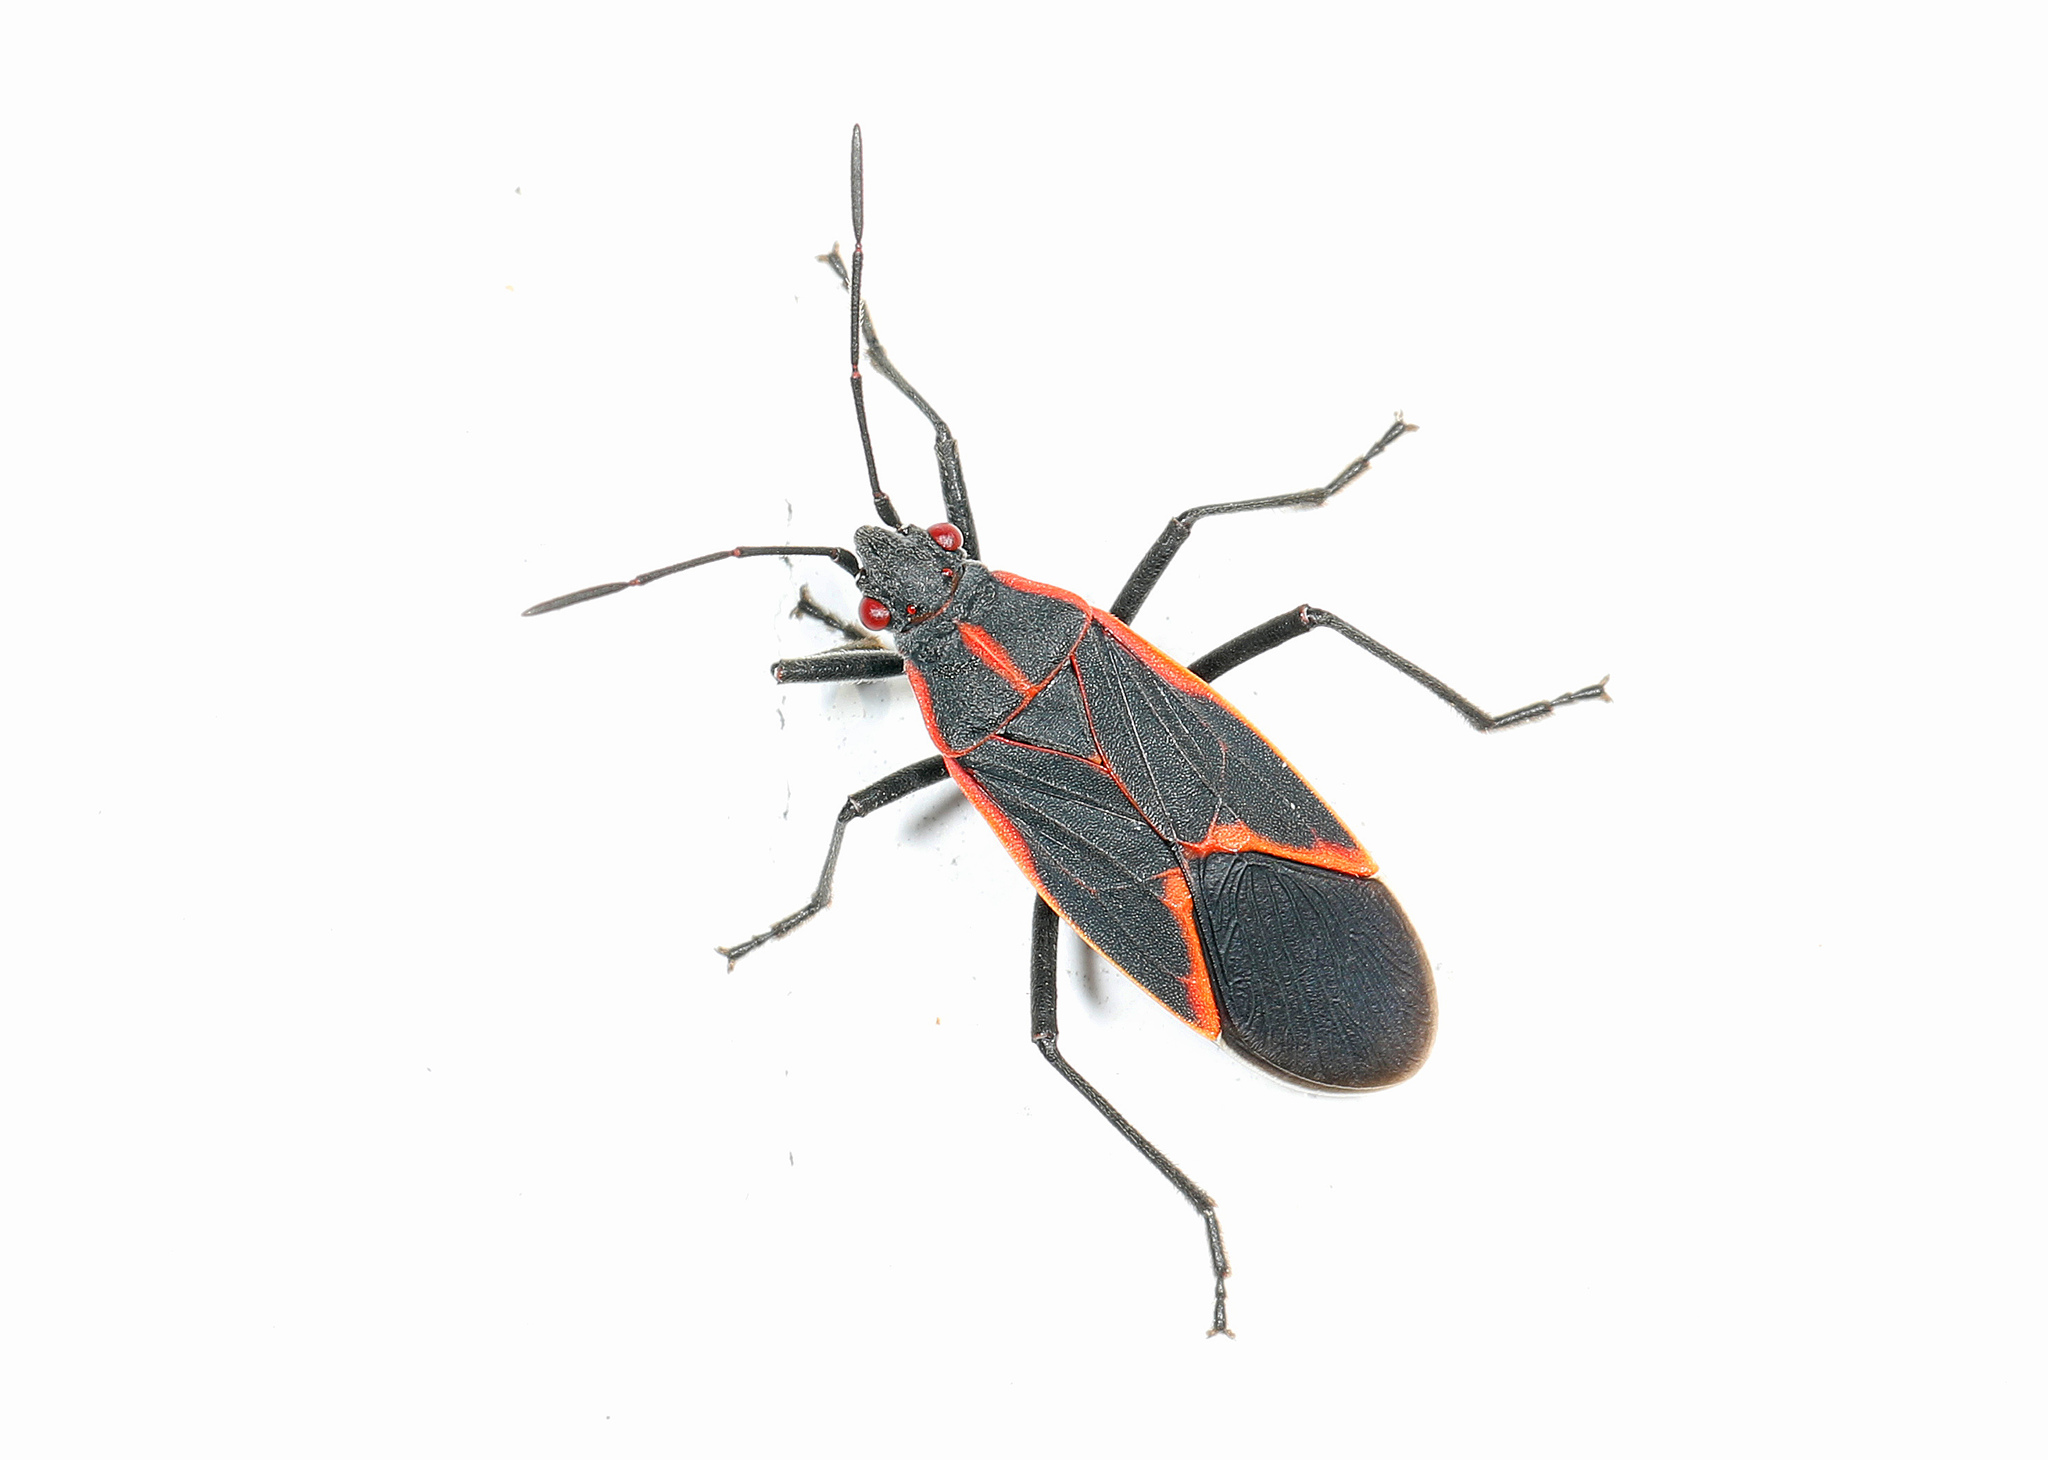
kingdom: Animalia
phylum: Arthropoda
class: Insecta
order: Hemiptera
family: Rhopalidae
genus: Boisea
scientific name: Boisea trivittata
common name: Boxelder bug
